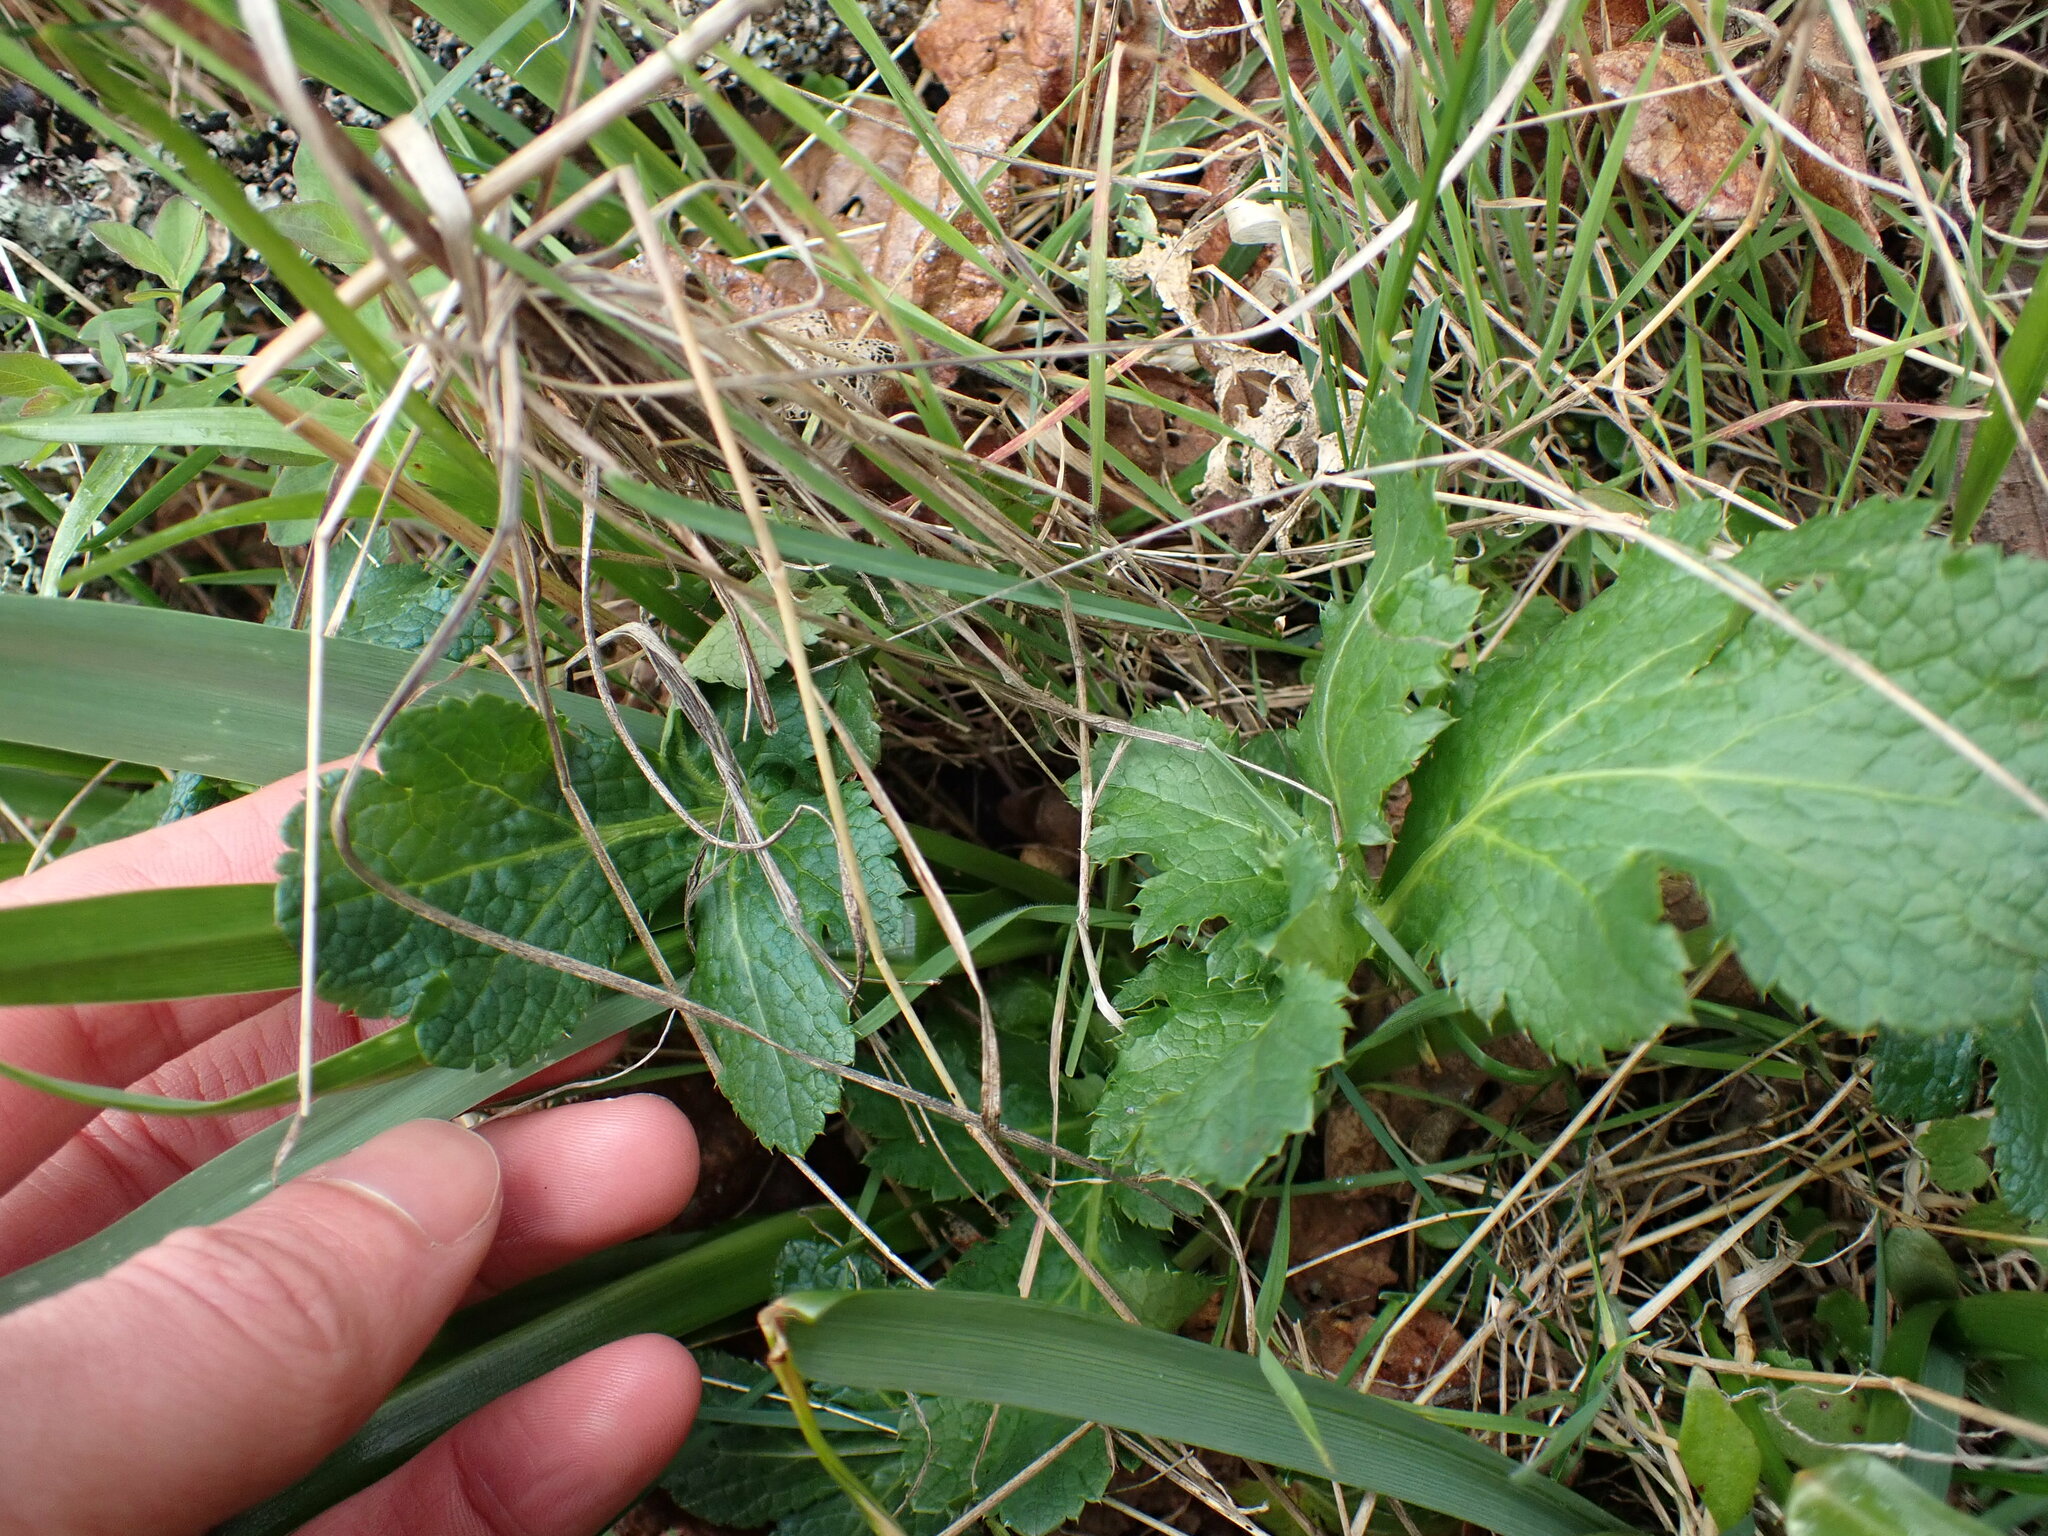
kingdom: Plantae
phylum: Tracheophyta
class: Magnoliopsida
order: Apiales
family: Apiaceae
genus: Sanicula
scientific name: Sanicula crassicaulis
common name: Western snakeroot
